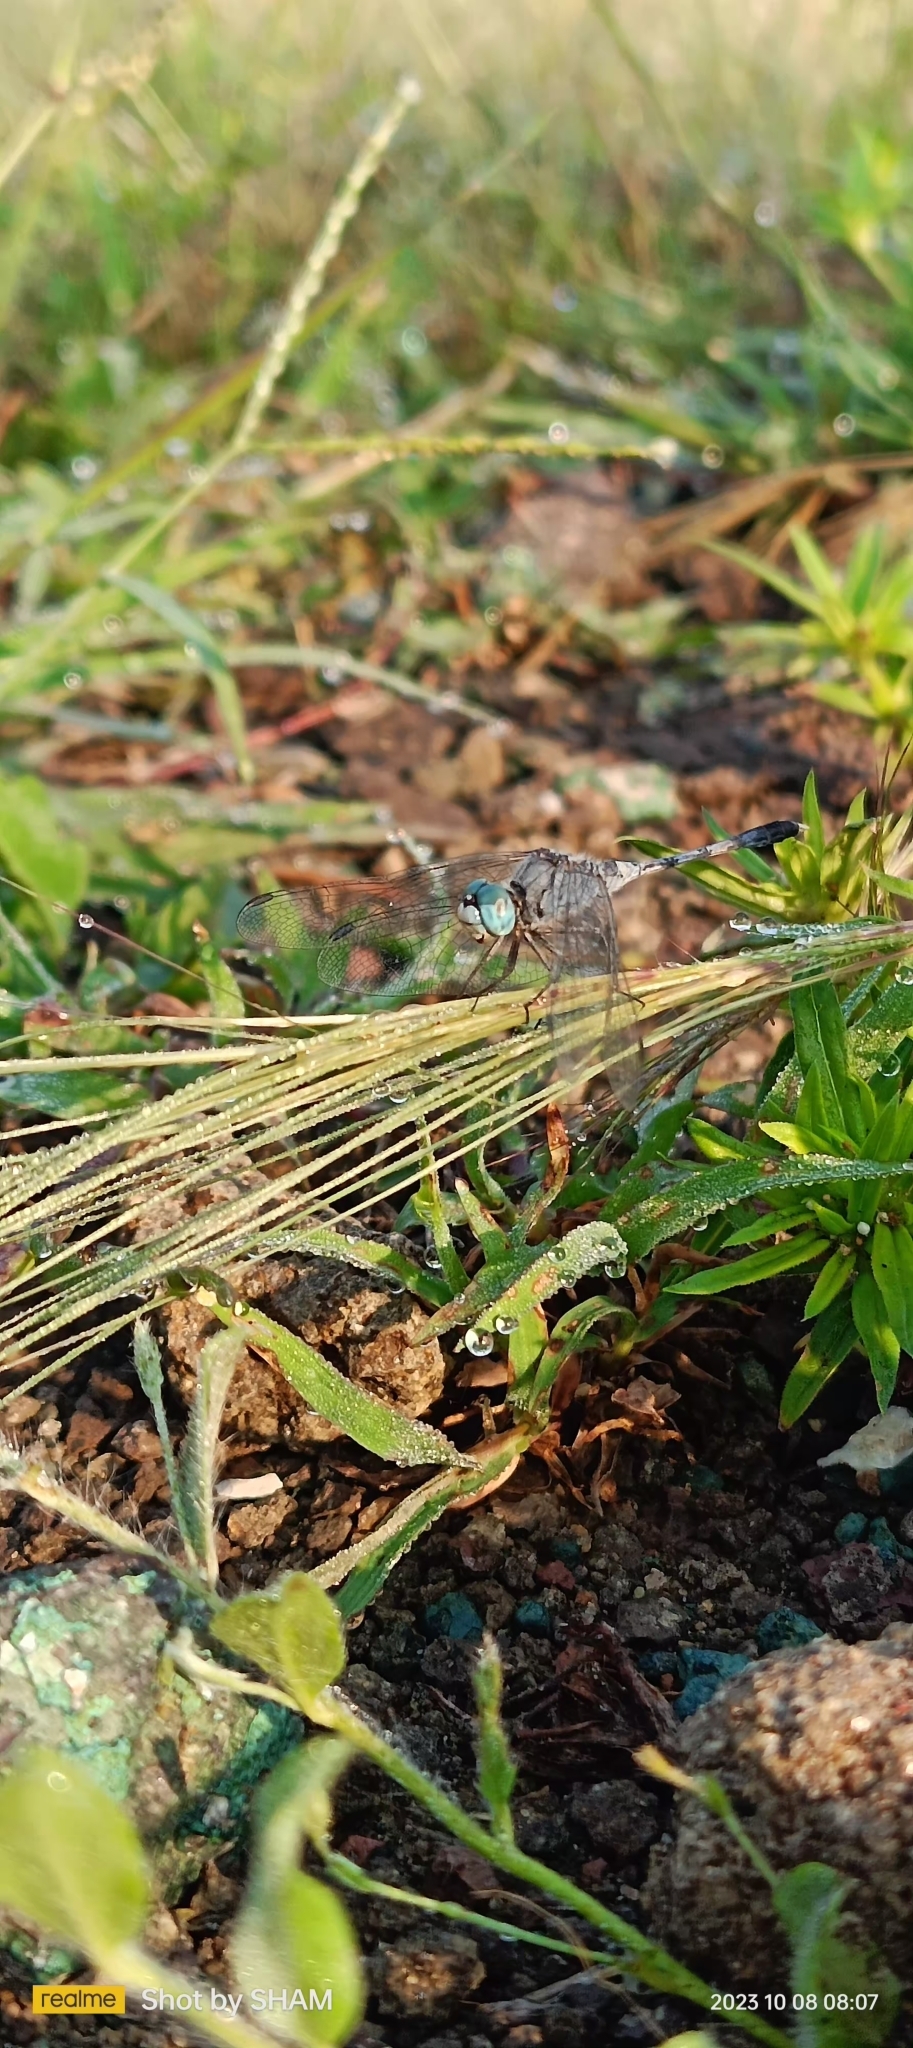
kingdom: Animalia
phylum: Arthropoda
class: Insecta
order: Odonata
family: Libellulidae
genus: Diplacodes
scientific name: Diplacodes trivialis
